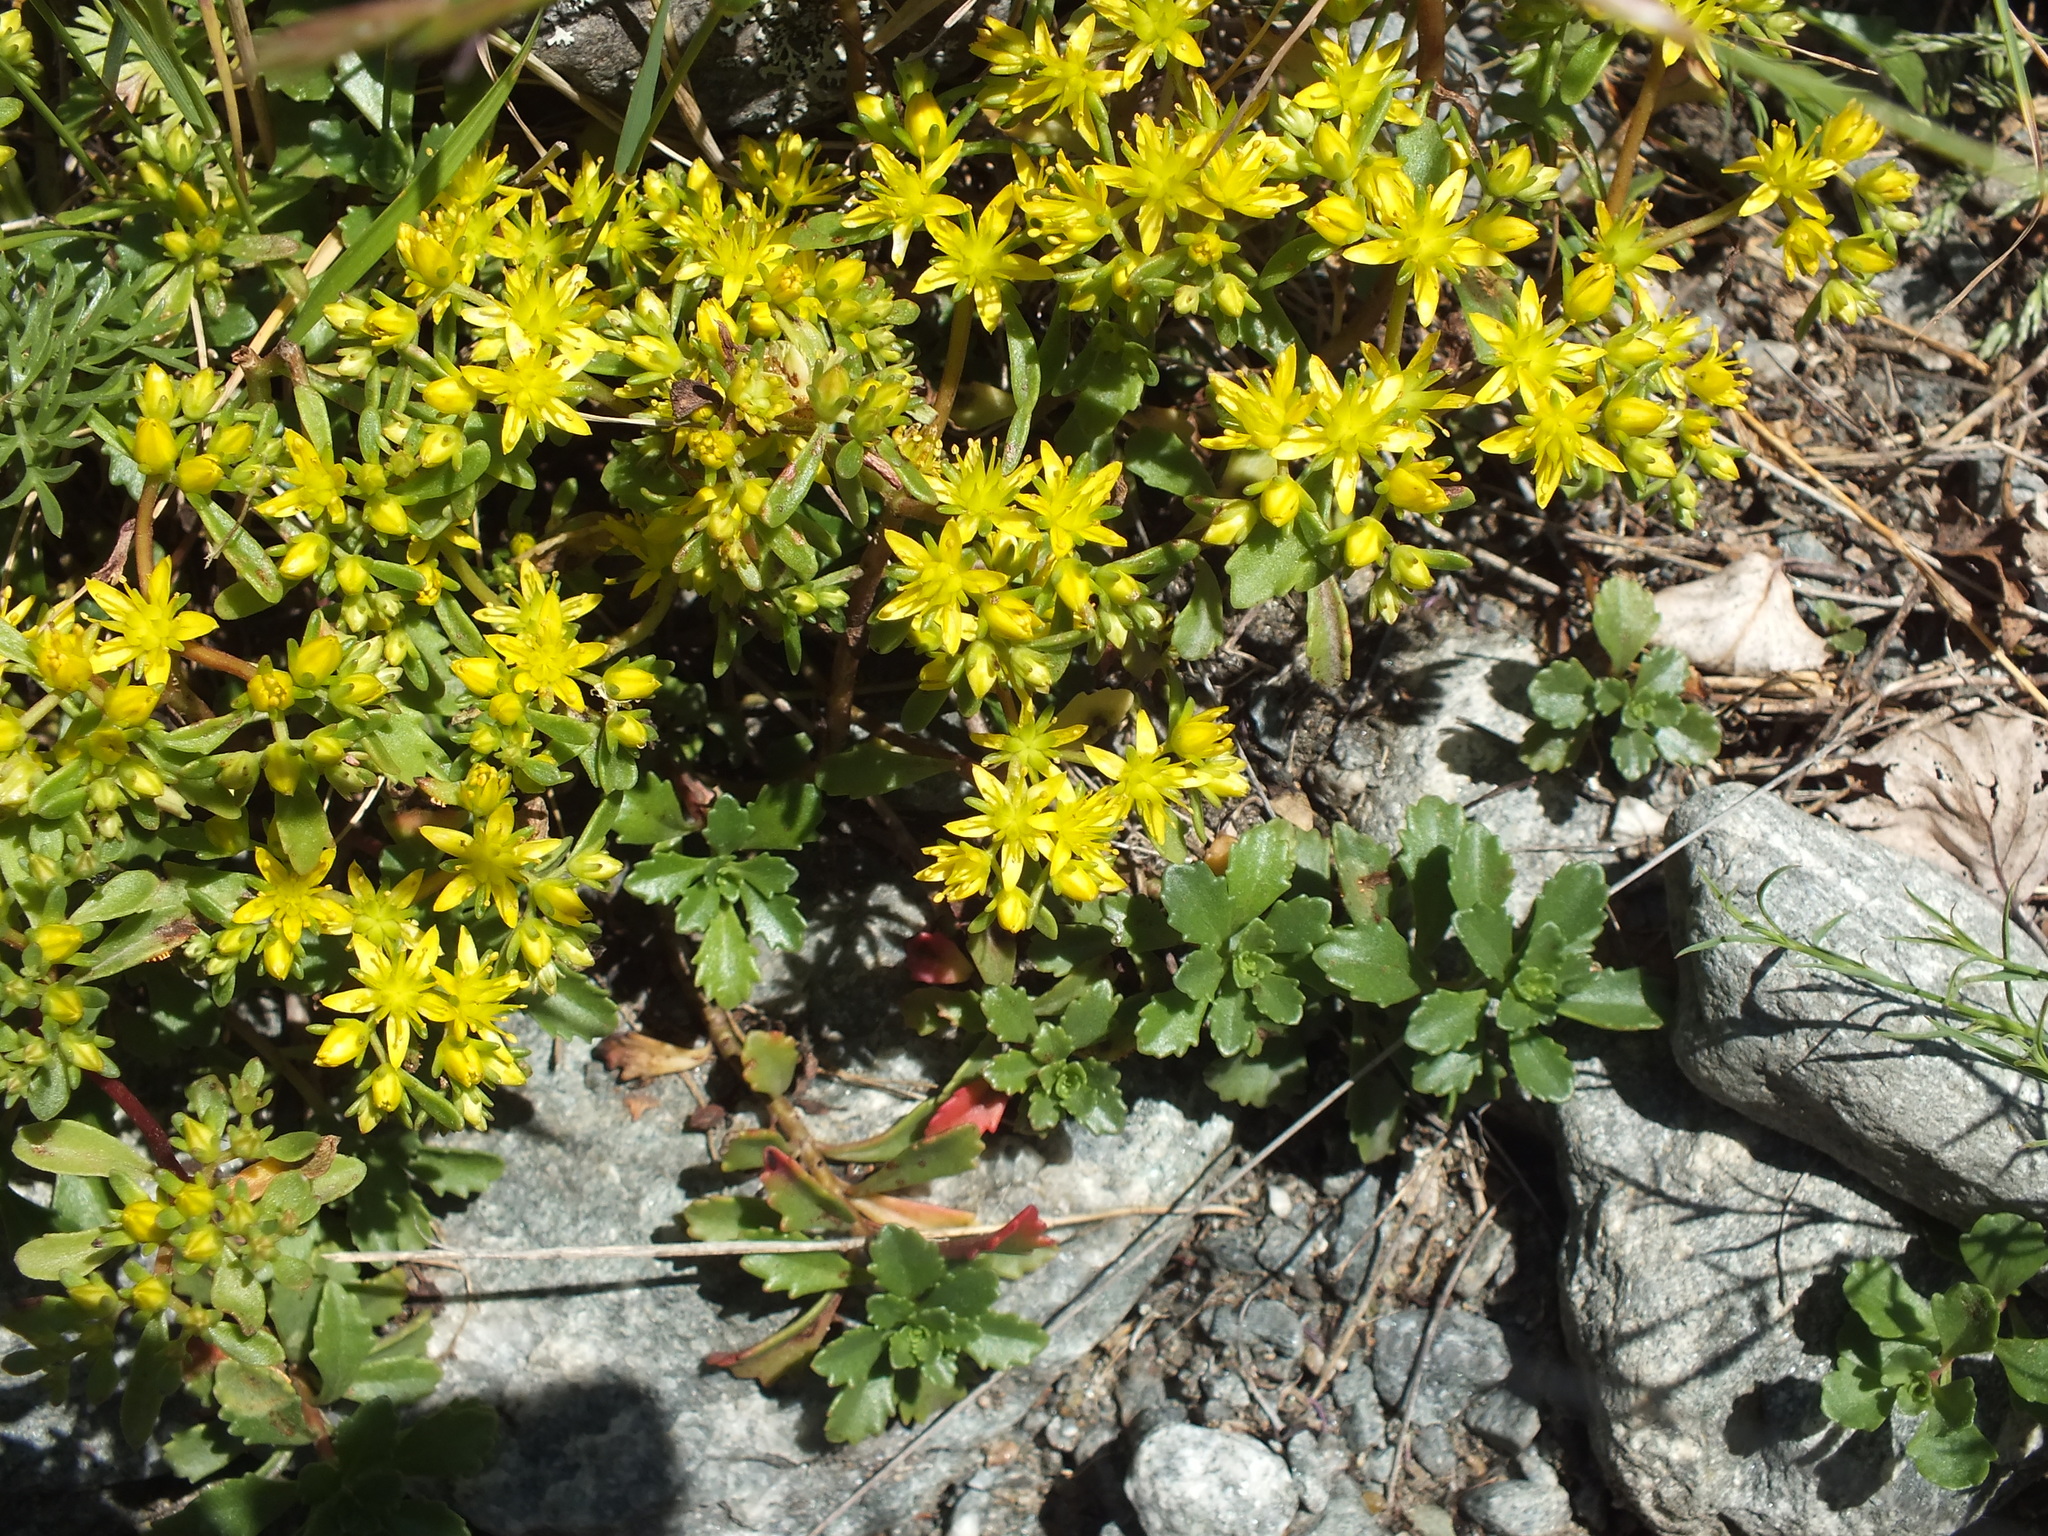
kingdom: Plantae
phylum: Tracheophyta
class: Magnoliopsida
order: Saxifragales
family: Crassulaceae
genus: Phedimus
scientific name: Phedimus hybridus
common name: Hybrid stonecrop
